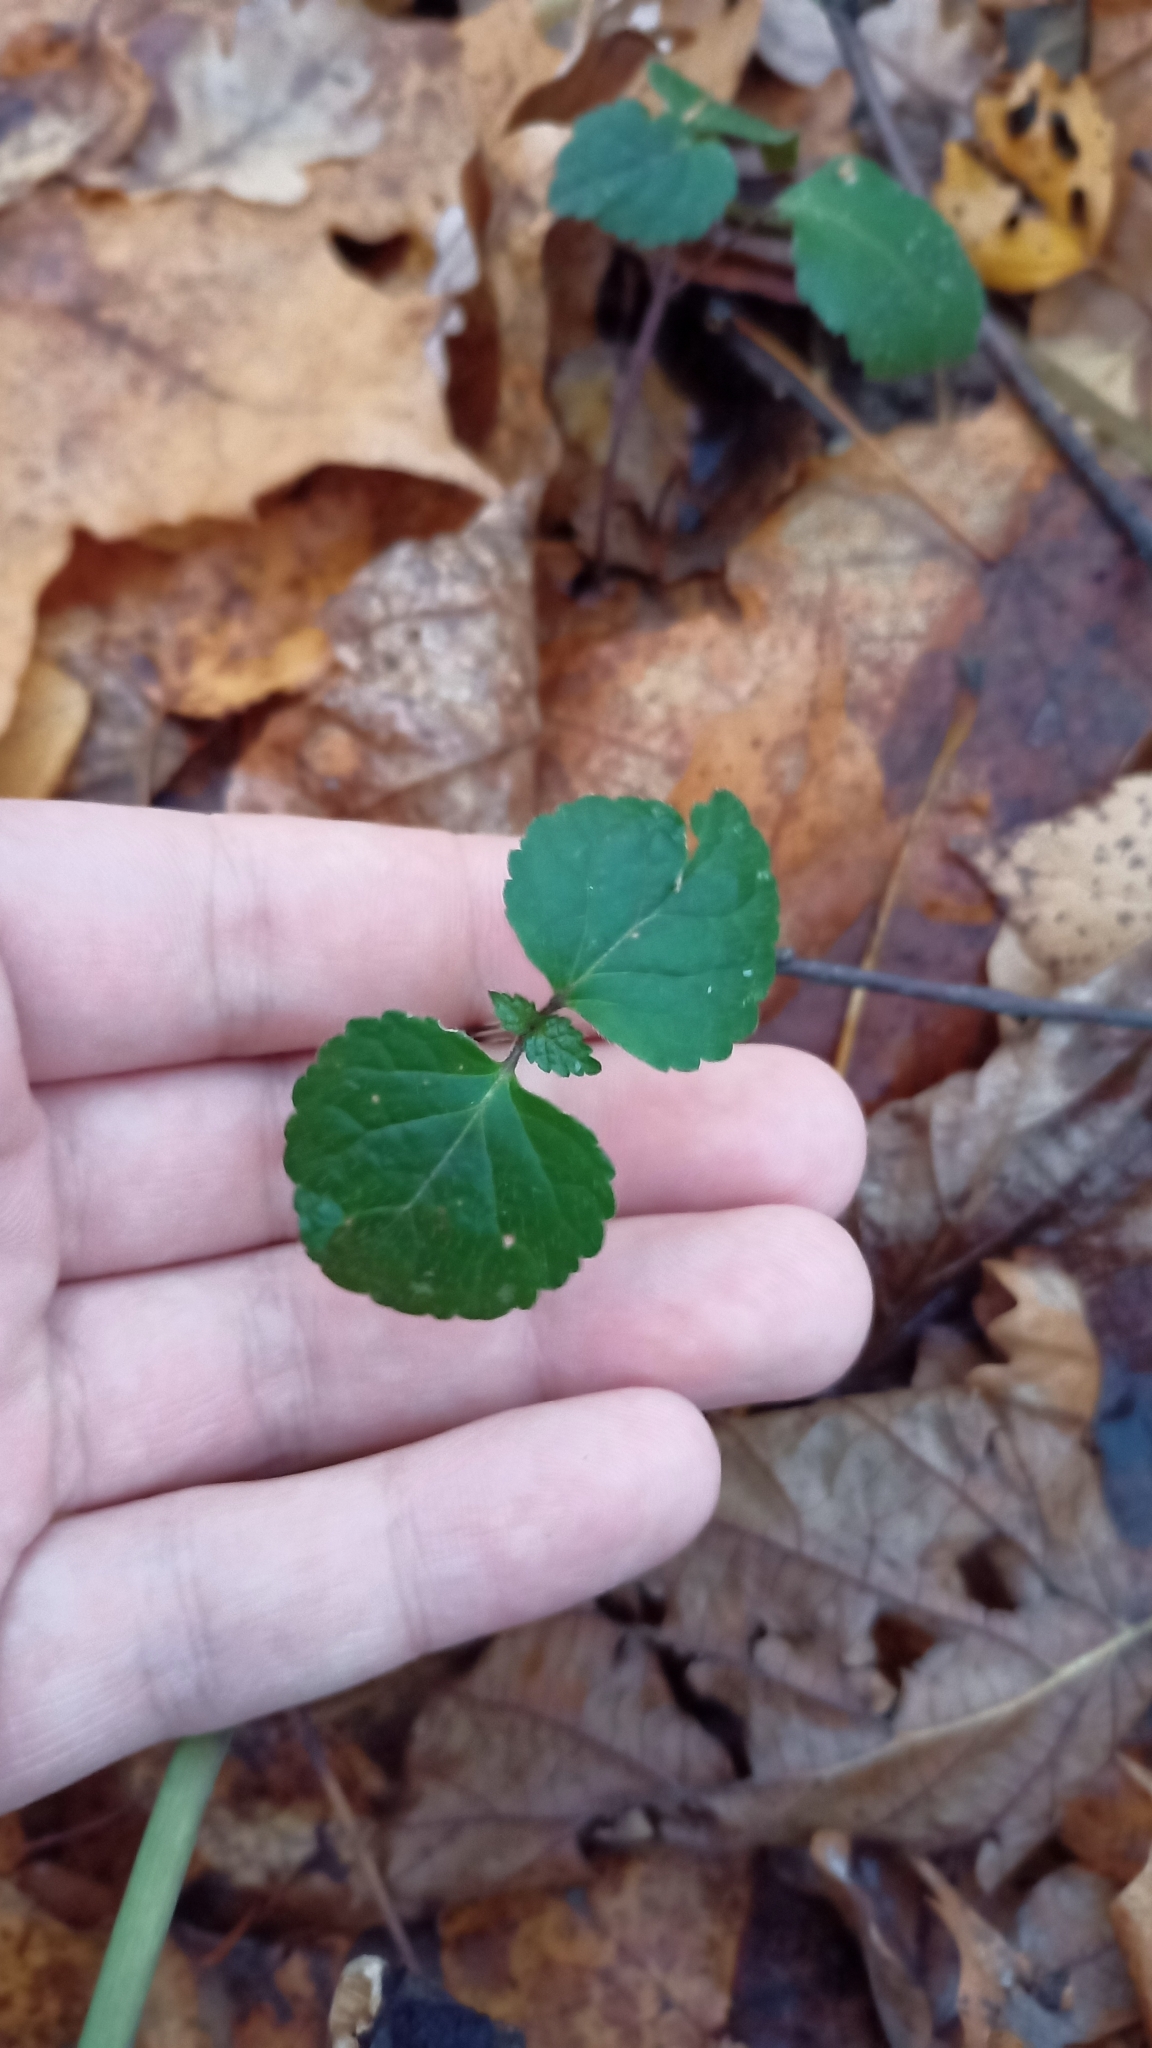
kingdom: Plantae
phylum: Tracheophyta
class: Magnoliopsida
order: Lamiales
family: Lamiaceae
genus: Lamium
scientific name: Lamium galeobdolon
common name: Yellow archangel
